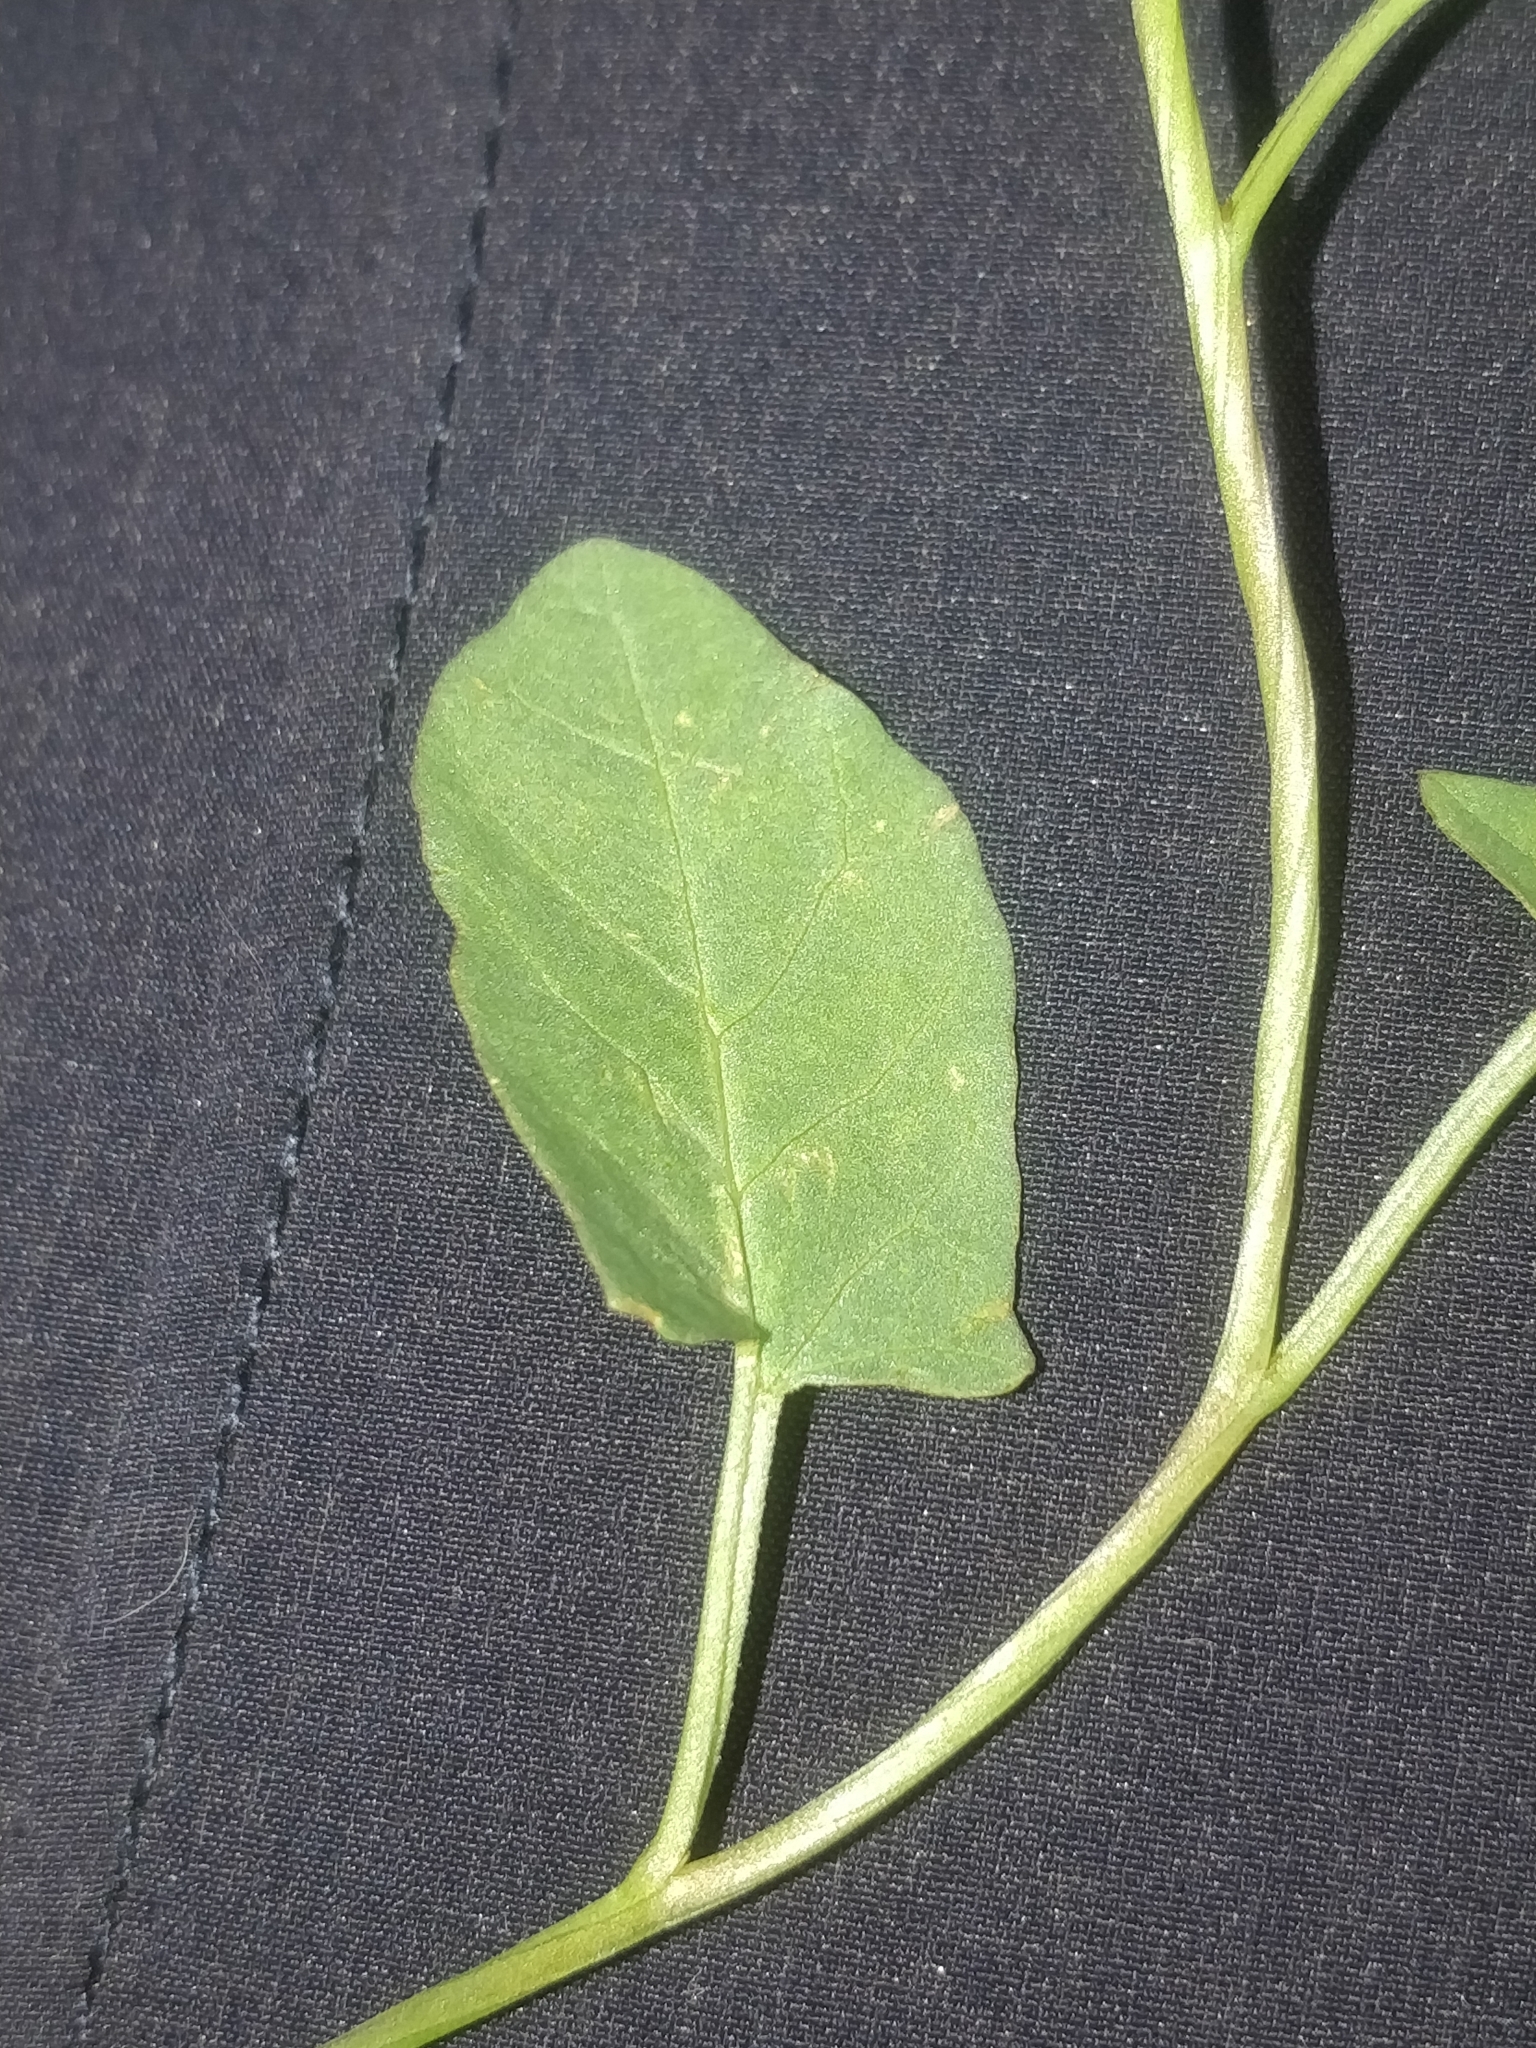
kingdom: Plantae
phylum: Tracheophyta
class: Magnoliopsida
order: Solanales
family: Convolvulaceae
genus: Convolvulus
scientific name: Convolvulus arvensis
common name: Field bindweed
